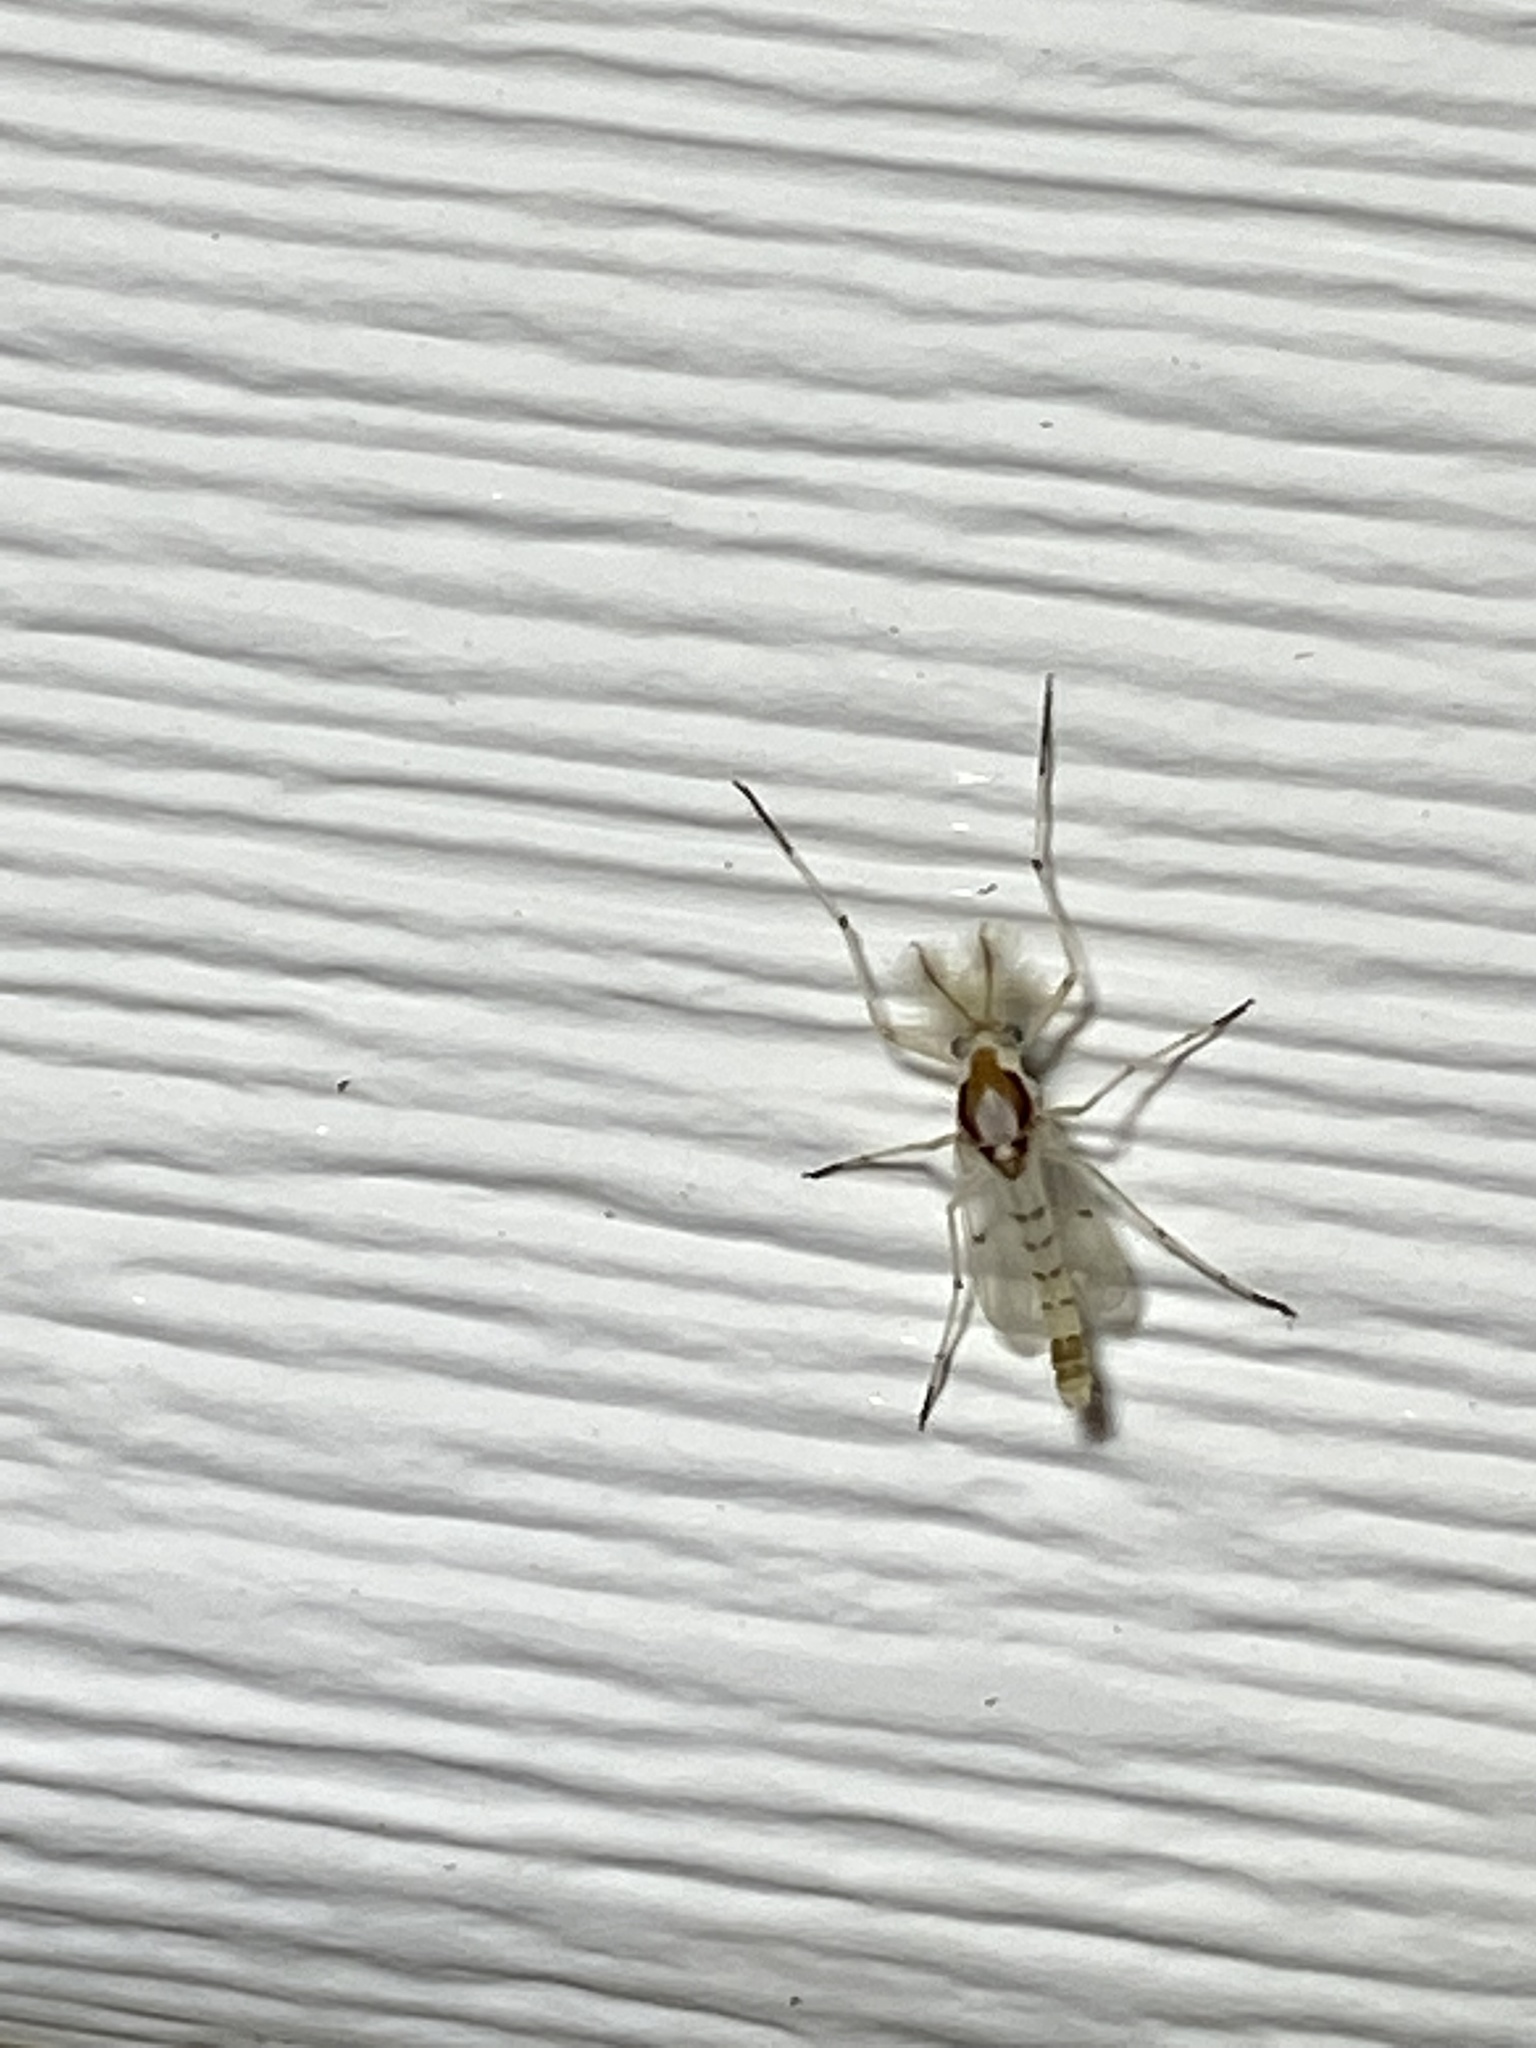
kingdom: Animalia
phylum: Arthropoda
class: Insecta
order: Diptera
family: Chironomidae
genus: Coelotanypus
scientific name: Coelotanypus concinnus
